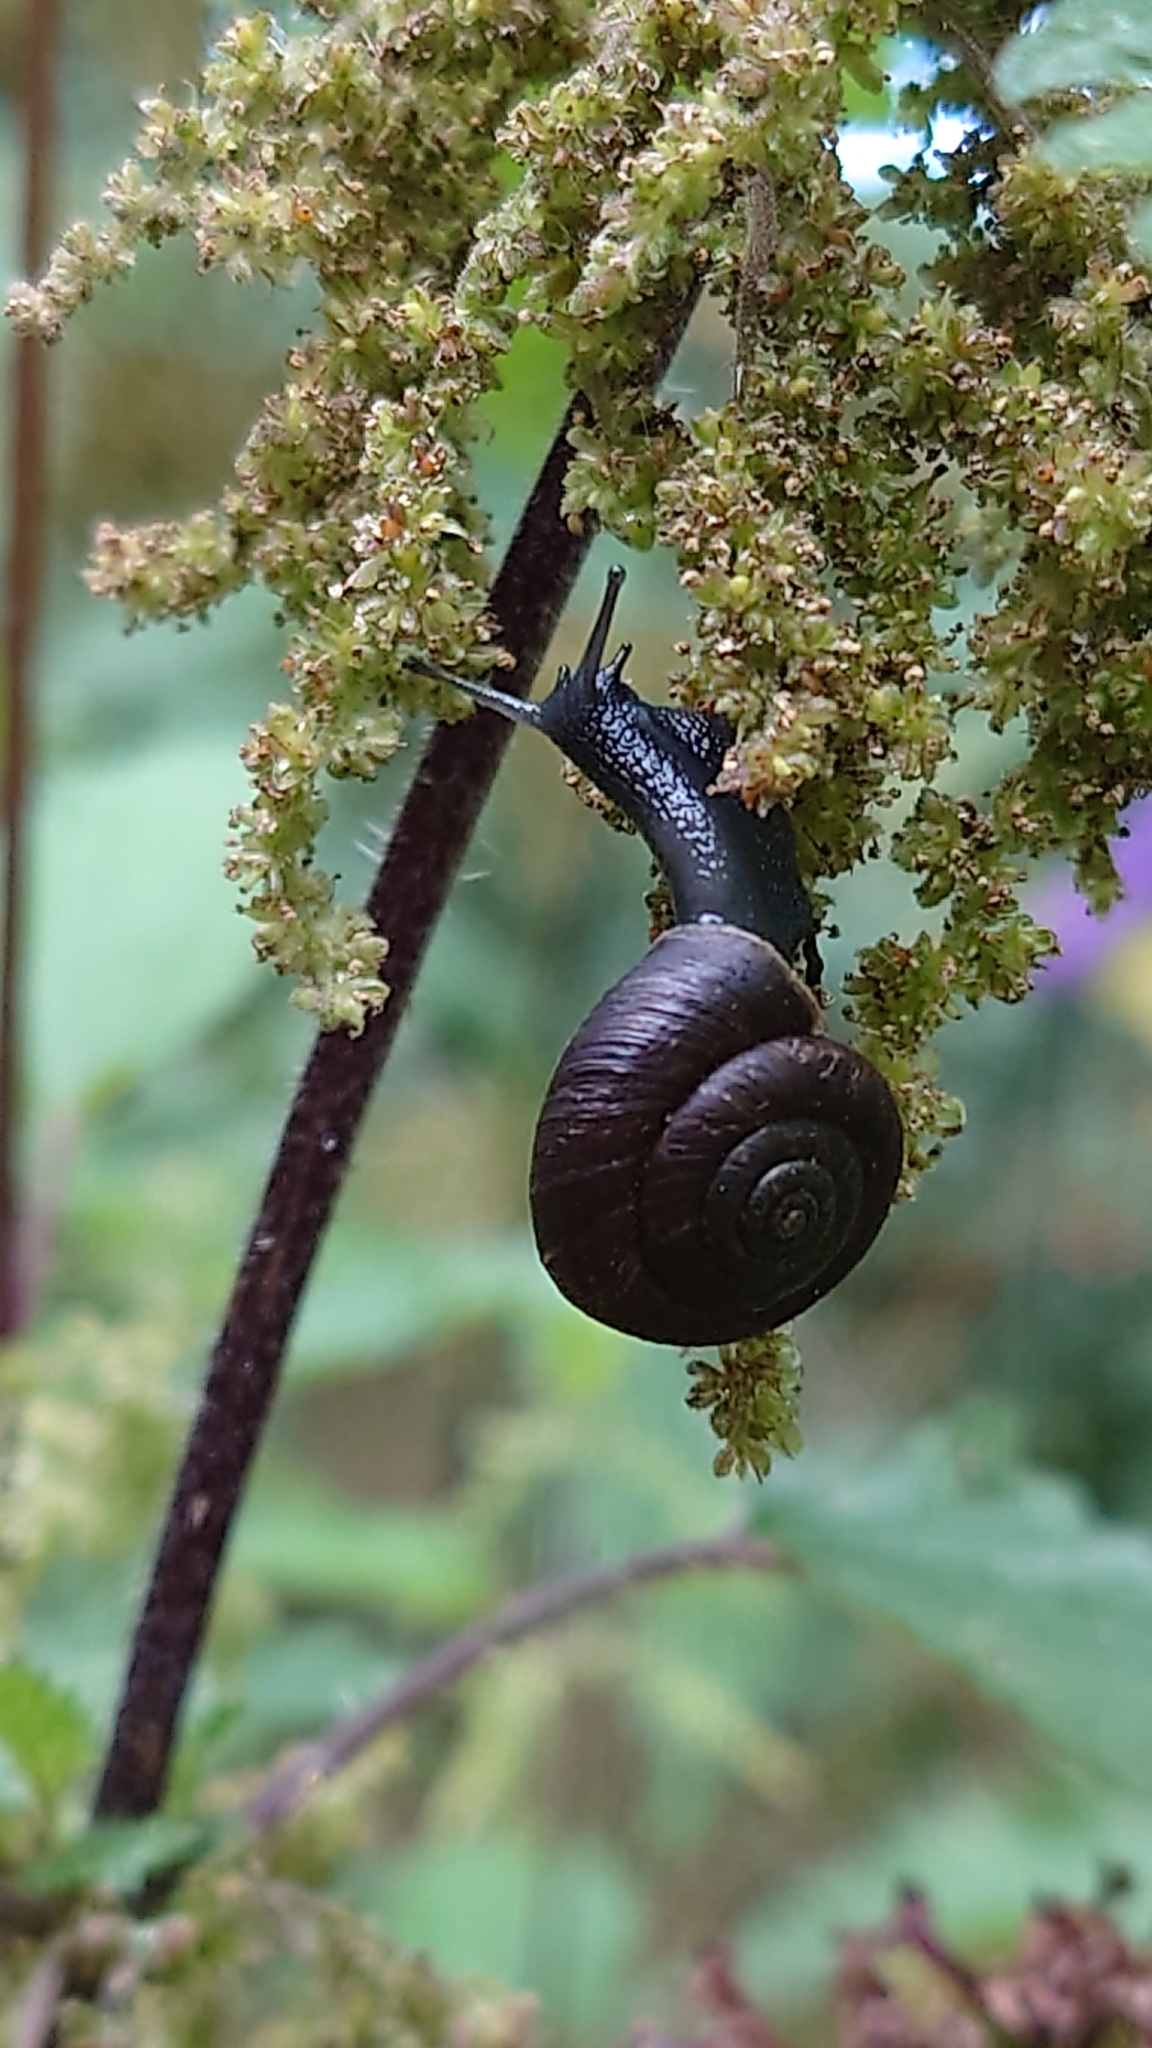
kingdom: Animalia
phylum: Mollusca
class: Gastropoda
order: Stylommatophora
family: Hygromiidae
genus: Trochulus
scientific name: Trochulus striolatus
